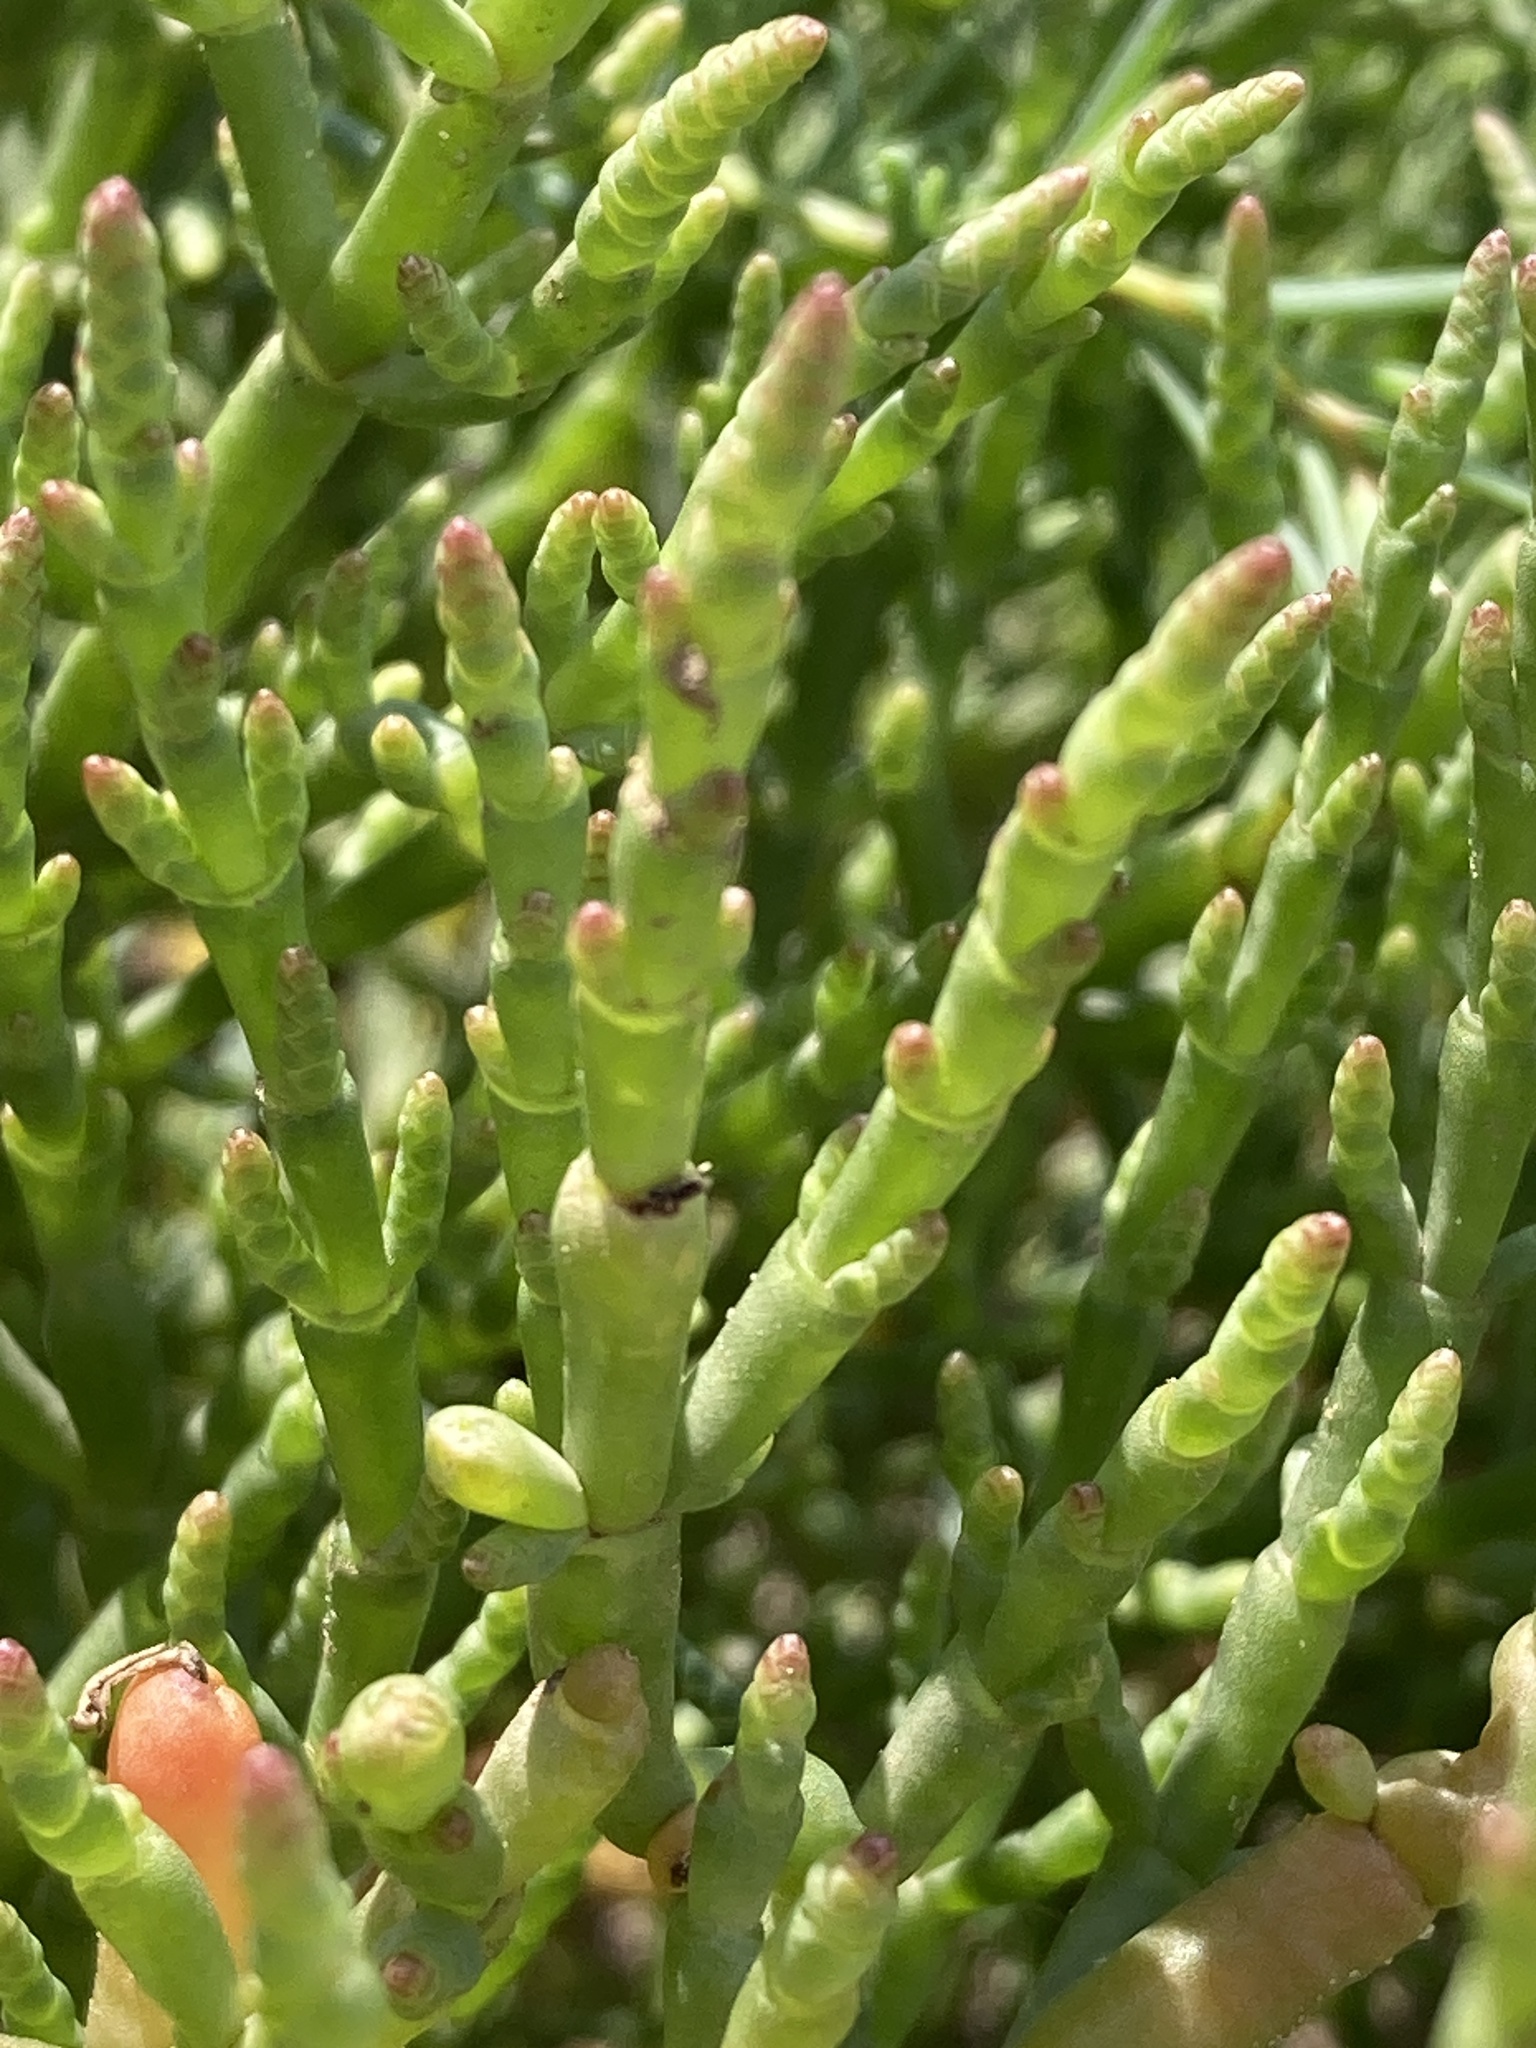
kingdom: Plantae
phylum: Tracheophyta
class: Magnoliopsida
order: Caryophyllales
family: Amaranthaceae
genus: Salicornia
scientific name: Salicornia perennans
